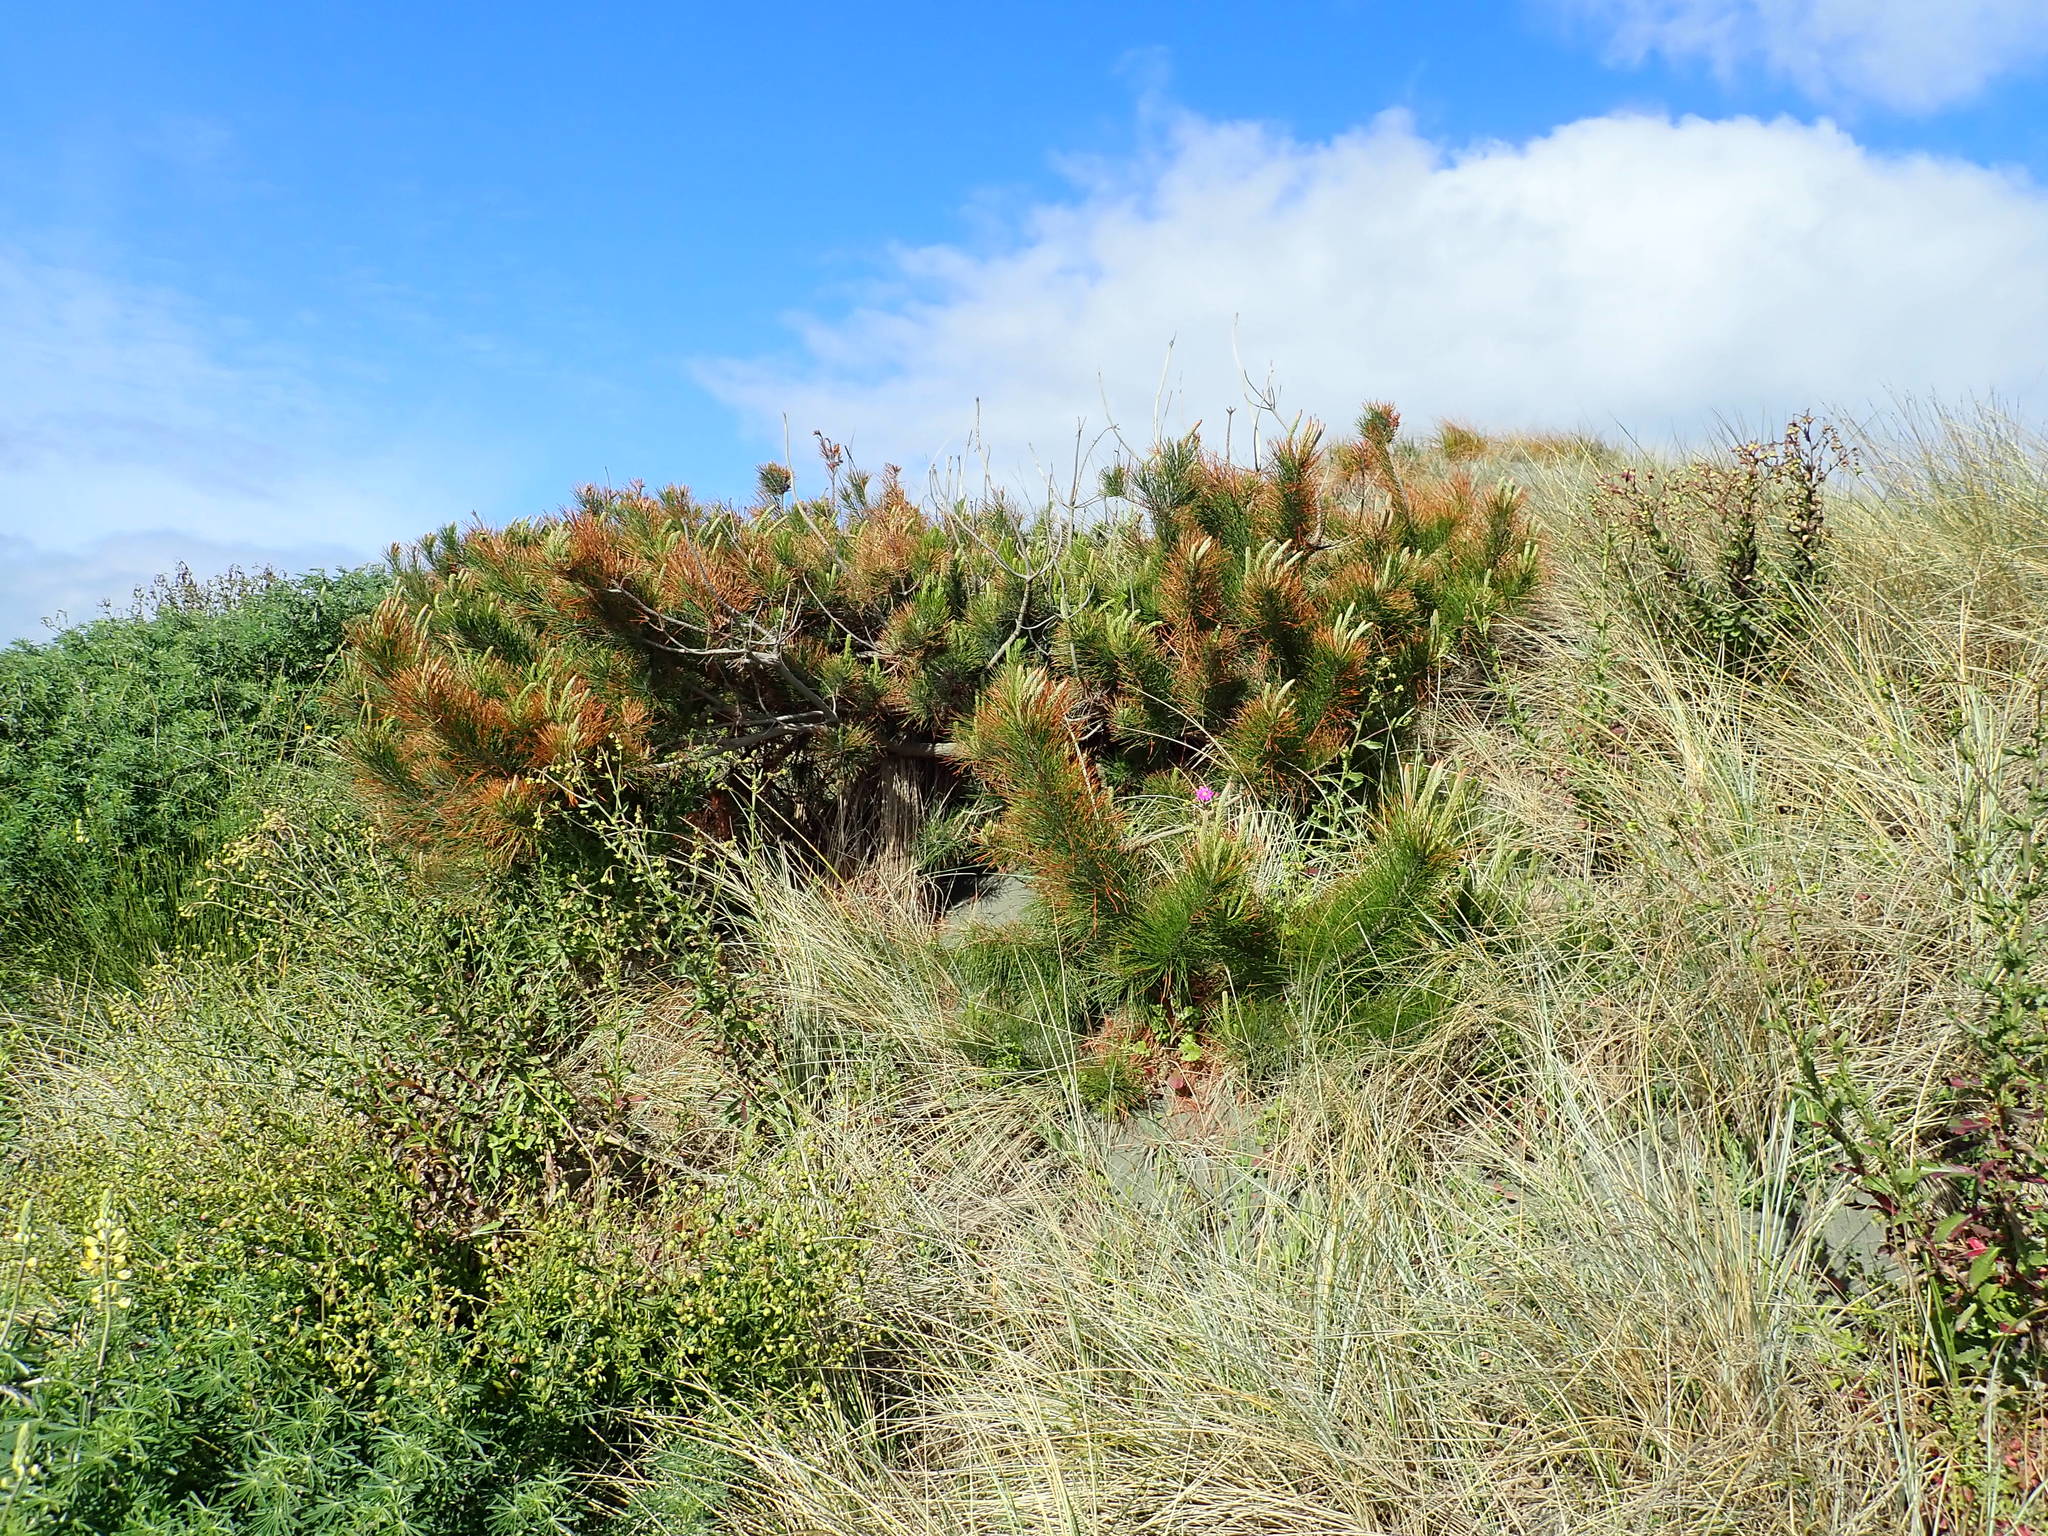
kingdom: Plantae
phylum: Tracheophyta
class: Pinopsida
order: Pinales
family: Pinaceae
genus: Pinus
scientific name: Pinus radiata
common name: Monterey pine
